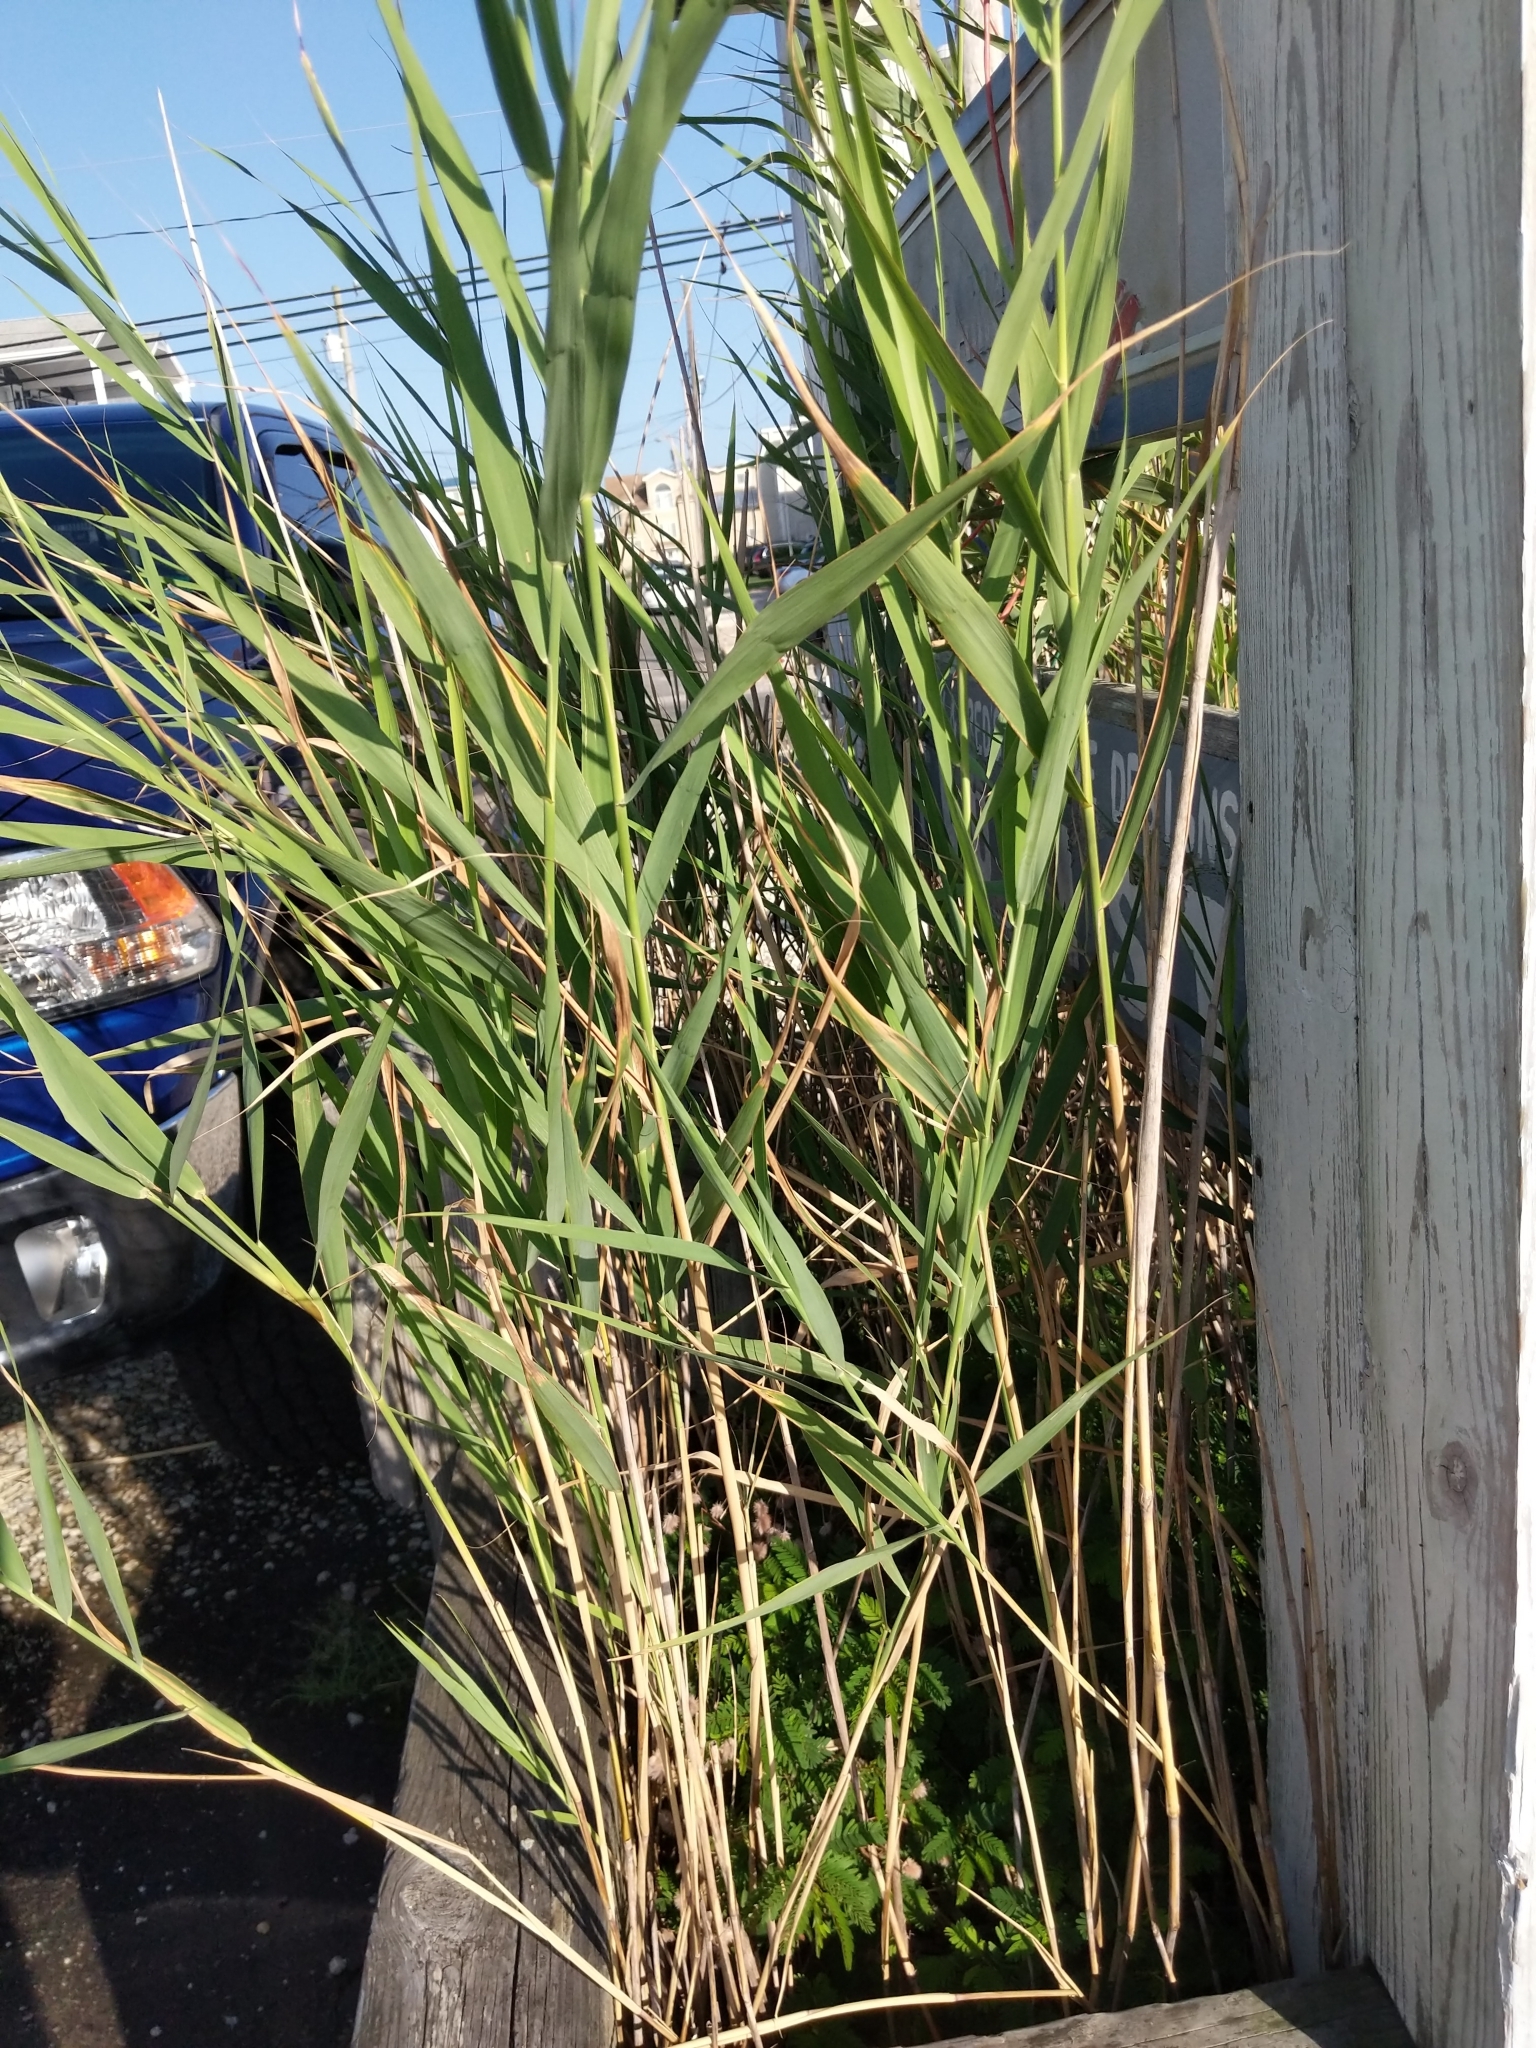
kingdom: Plantae
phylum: Tracheophyta
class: Liliopsida
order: Poales
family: Poaceae
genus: Phragmites
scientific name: Phragmites australis
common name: Common reed
